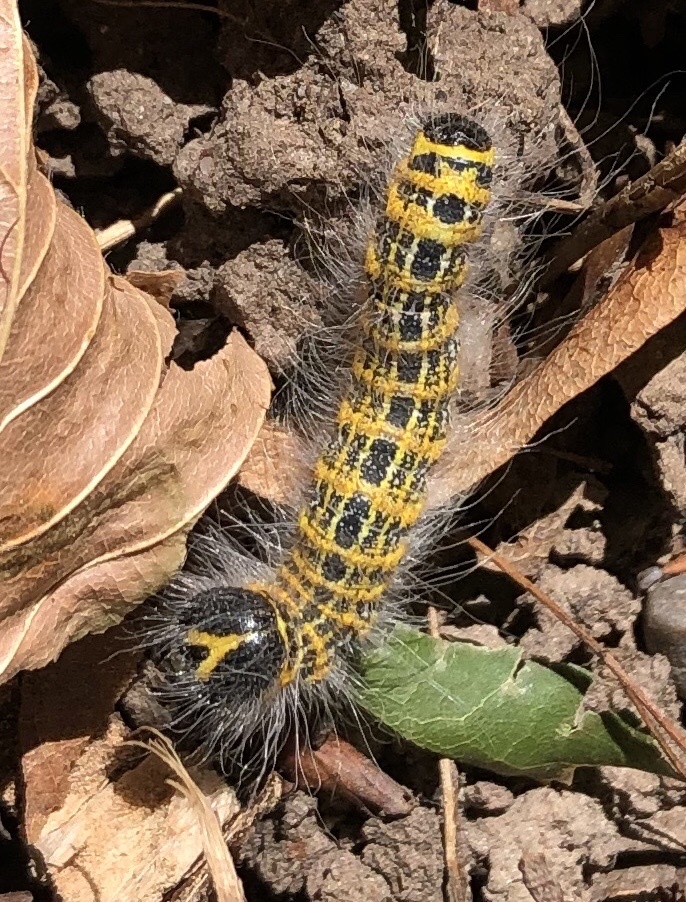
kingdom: Animalia
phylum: Arthropoda
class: Insecta
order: Lepidoptera
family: Notodontidae
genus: Phalera
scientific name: Phalera bucephala
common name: Buff-tip
